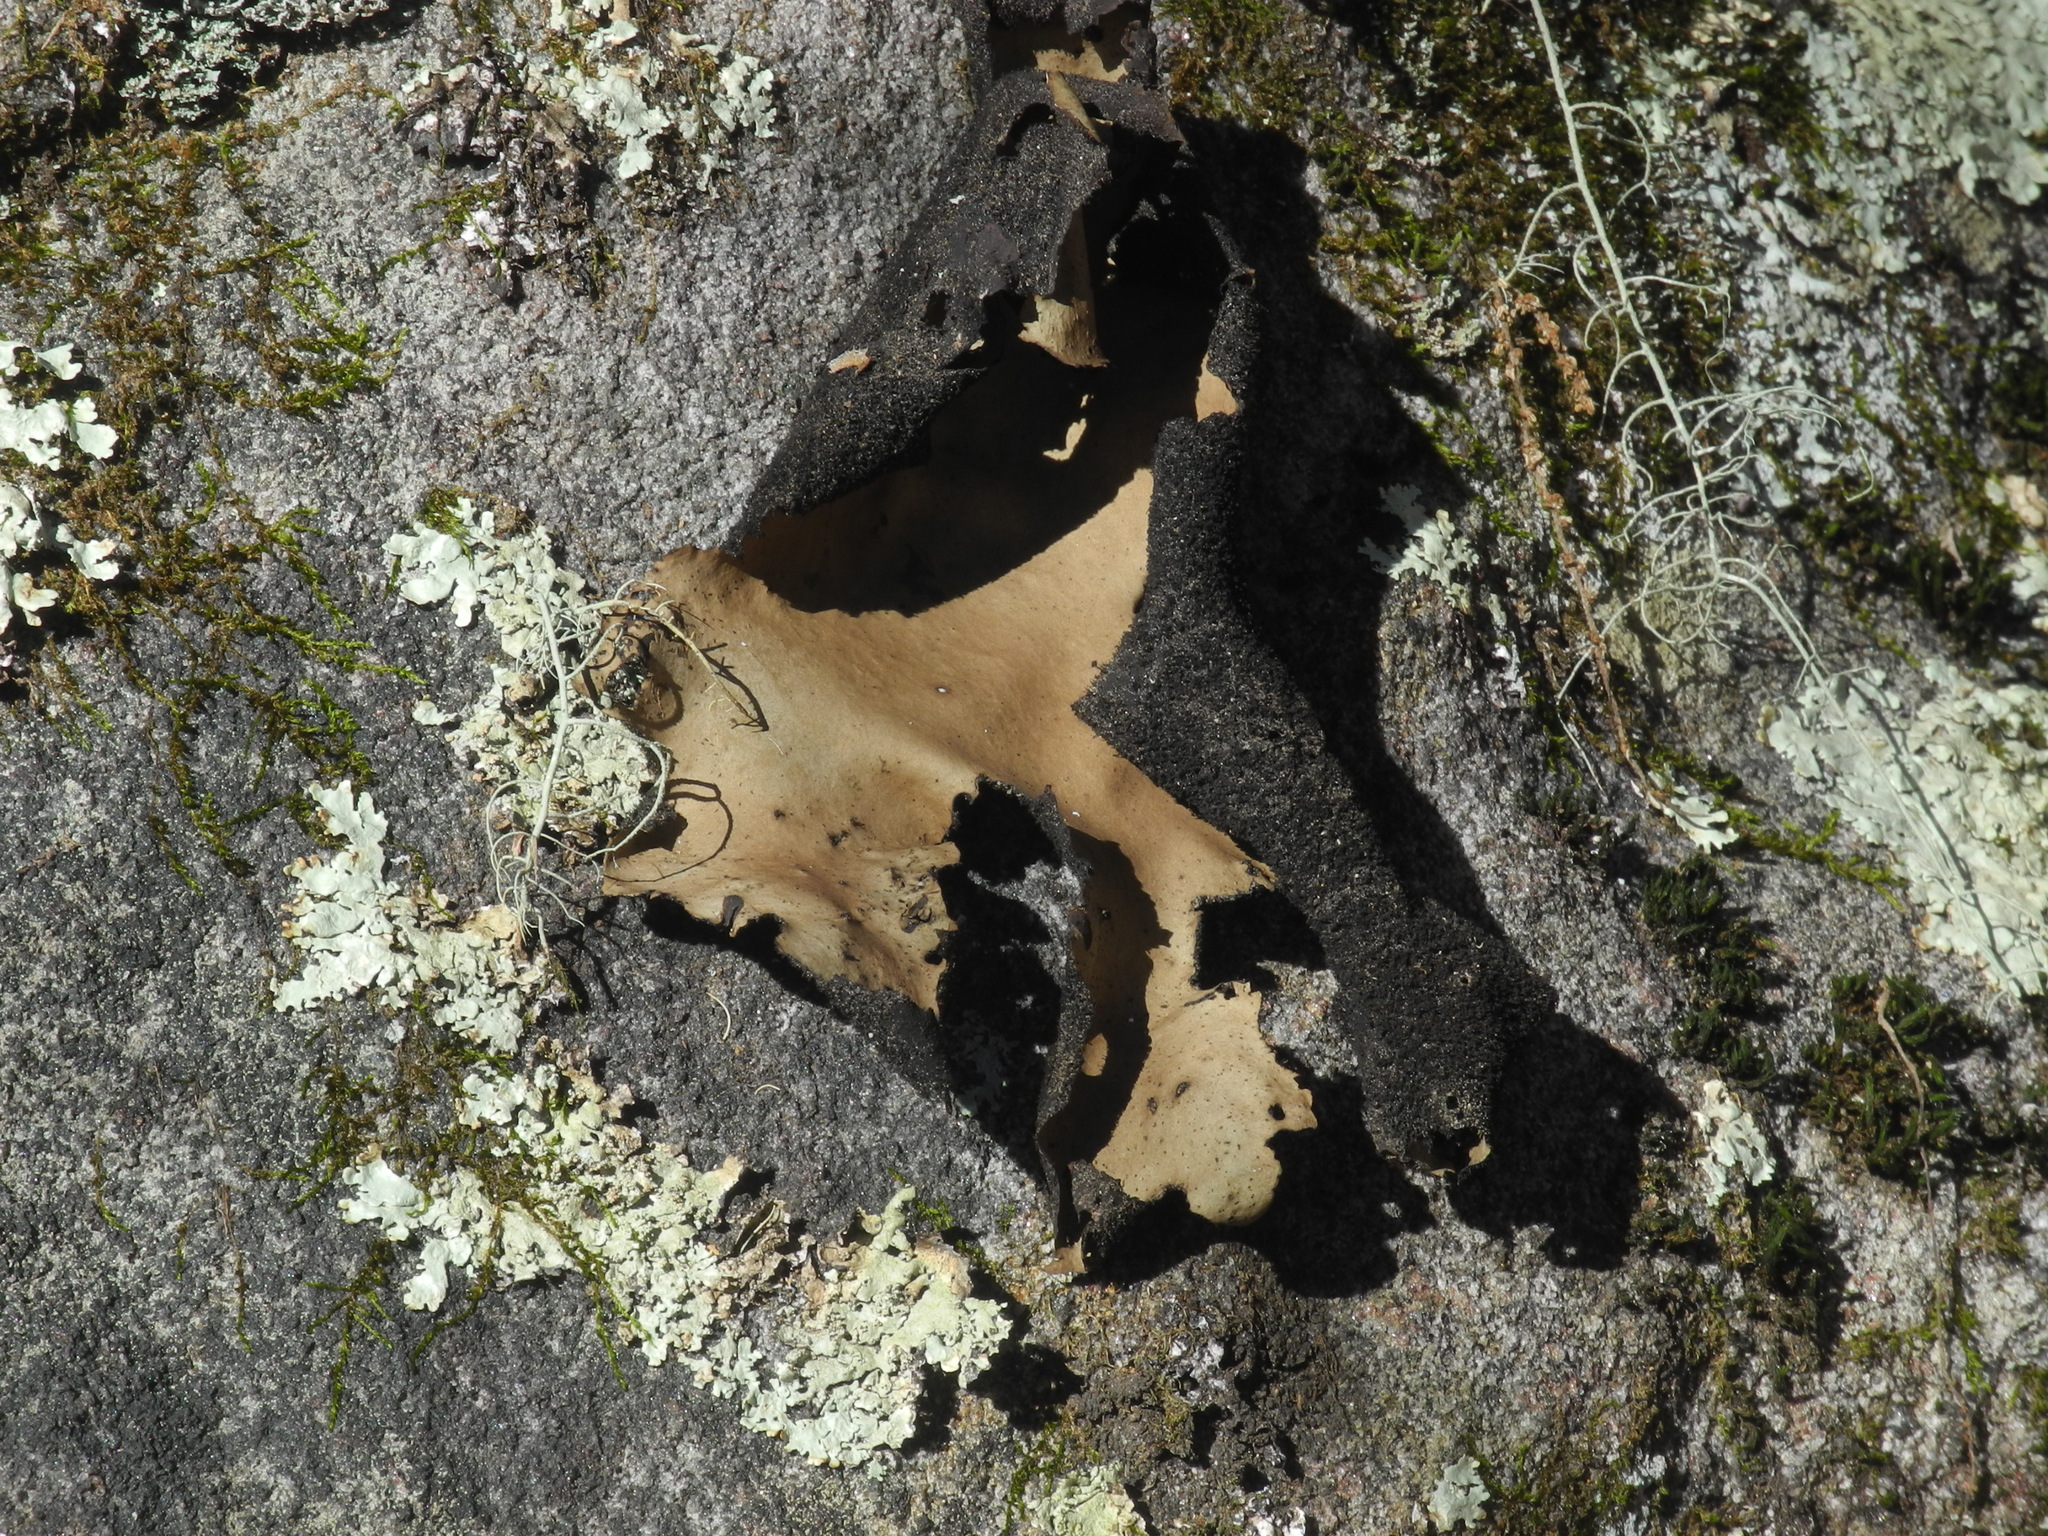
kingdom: Fungi
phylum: Ascomycota
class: Lecanoromycetes
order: Umbilicariales
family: Umbilicariaceae
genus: Umbilicaria
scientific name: Umbilicaria mammulata
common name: Smooth rock tripe
